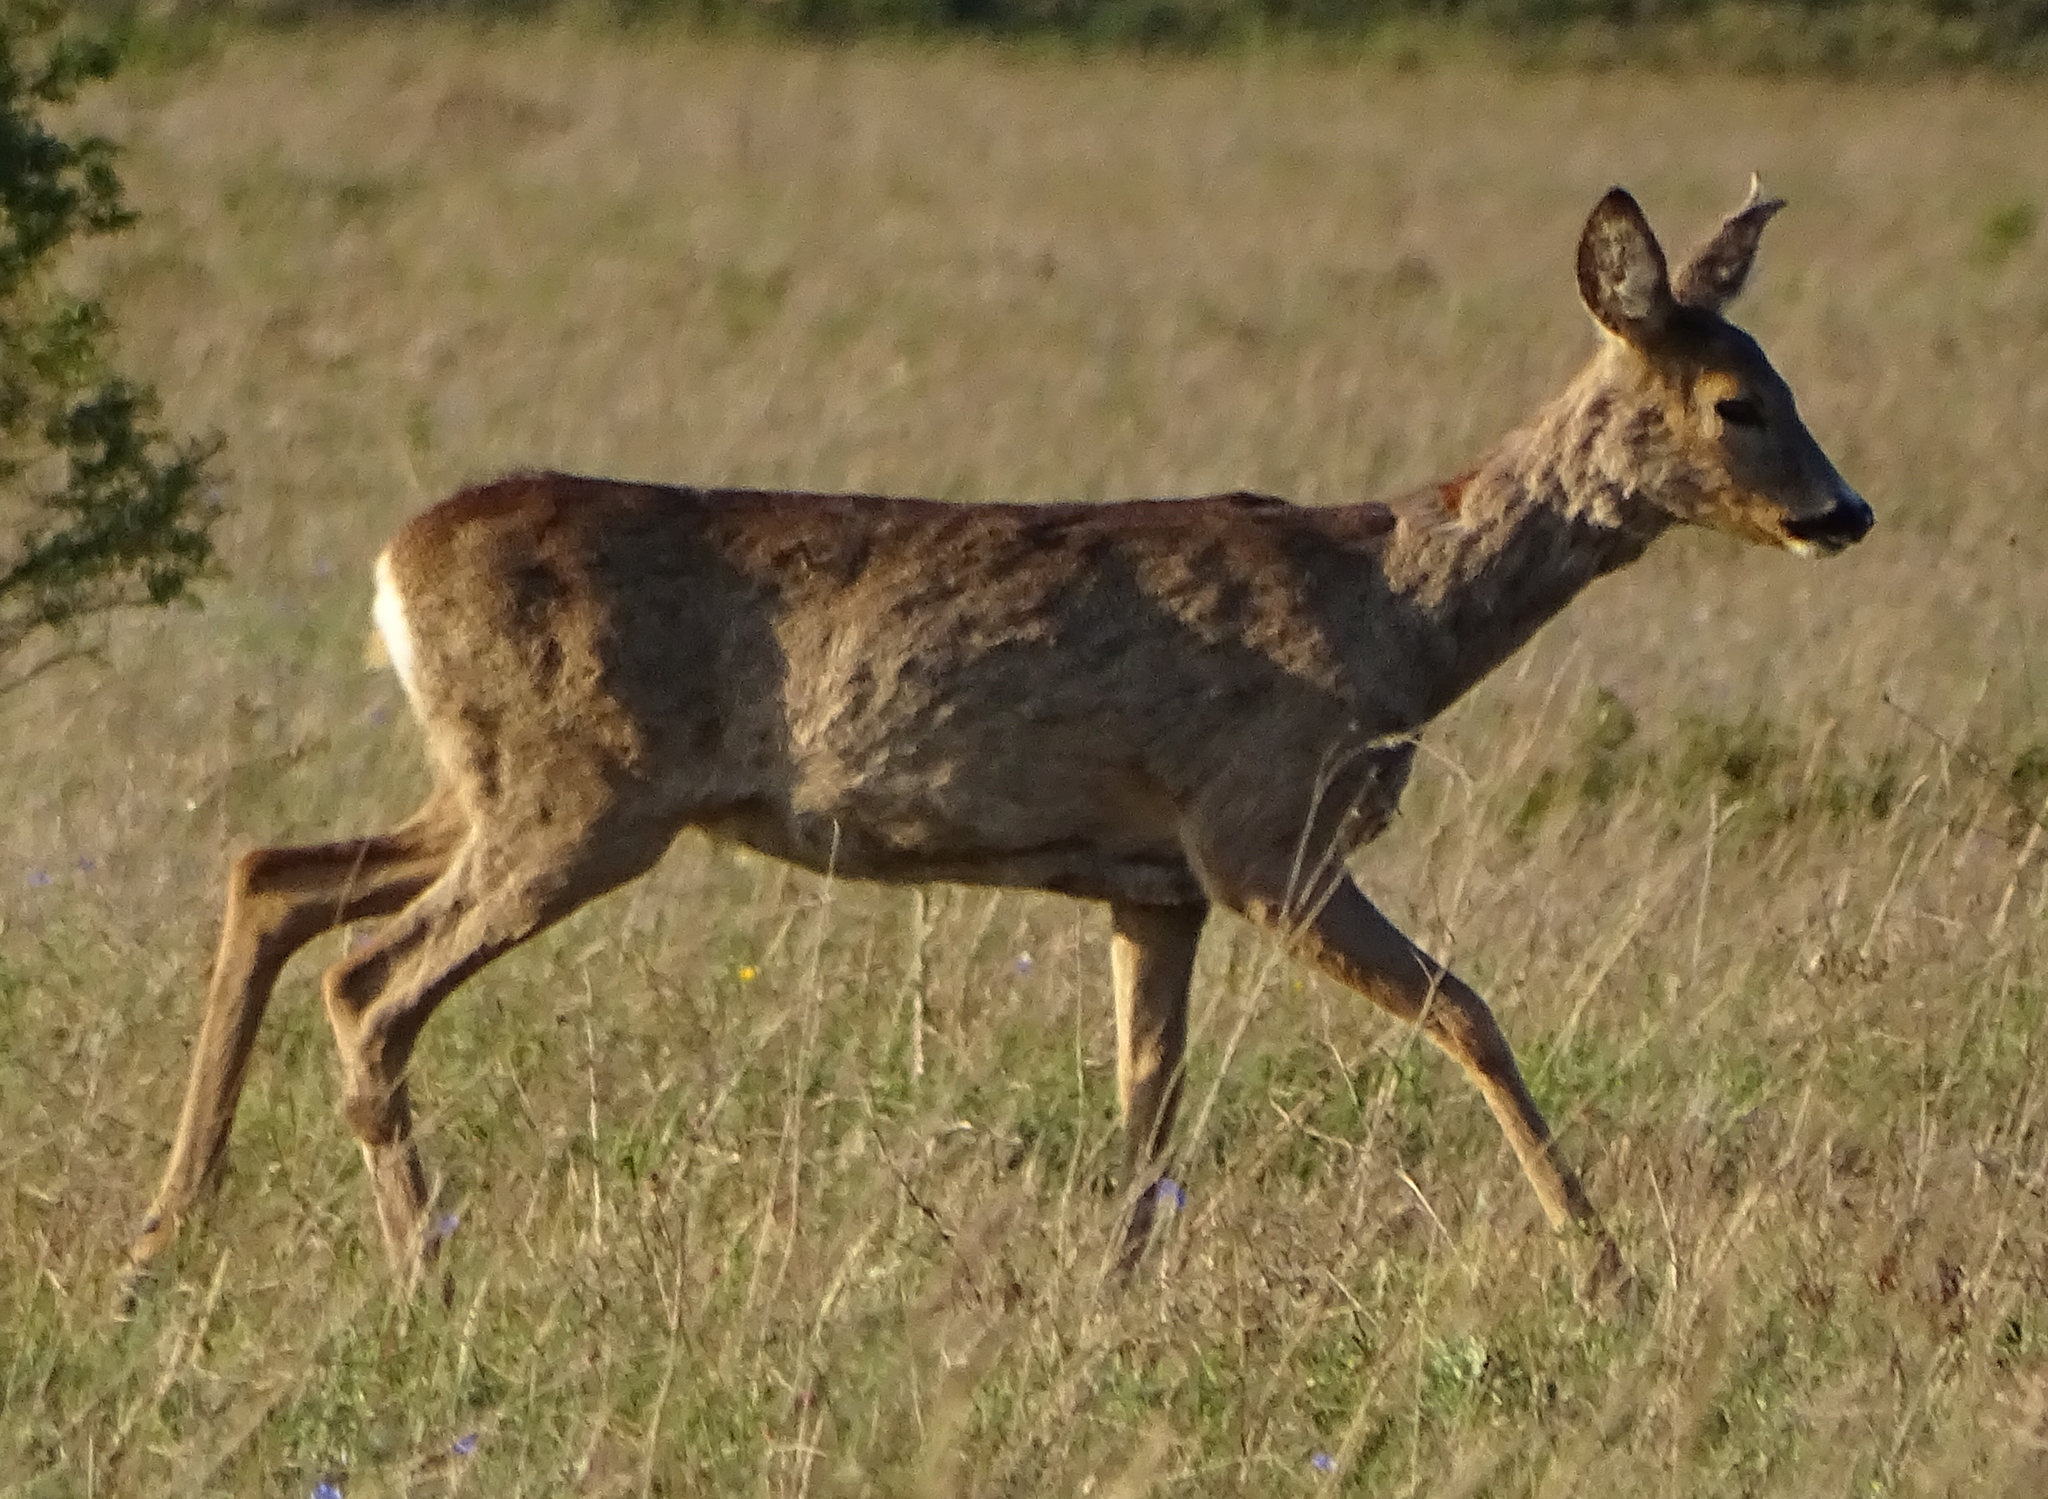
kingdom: Animalia
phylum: Chordata
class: Mammalia
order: Artiodactyla
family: Cervidae
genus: Capreolus
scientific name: Capreolus capreolus
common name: Western roe deer
